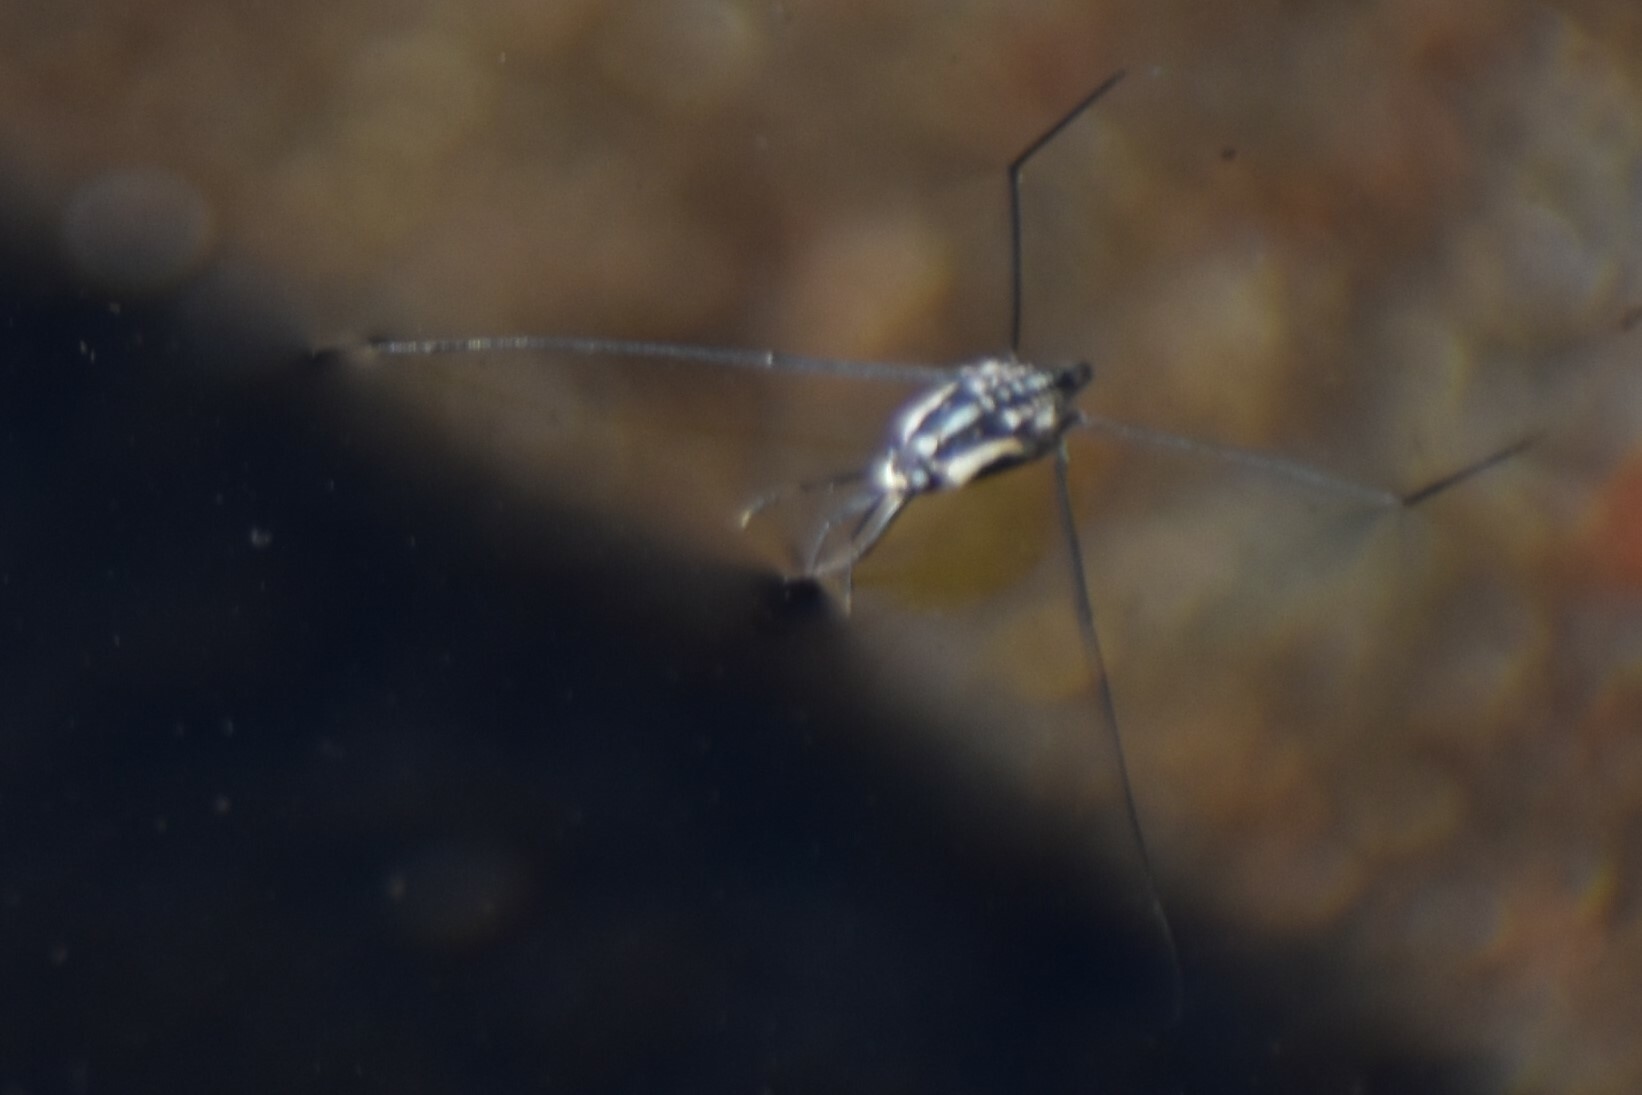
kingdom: Animalia
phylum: Arthropoda
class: Insecta
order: Hemiptera
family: Gerridae
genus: Metrobates
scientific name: Metrobates trux
